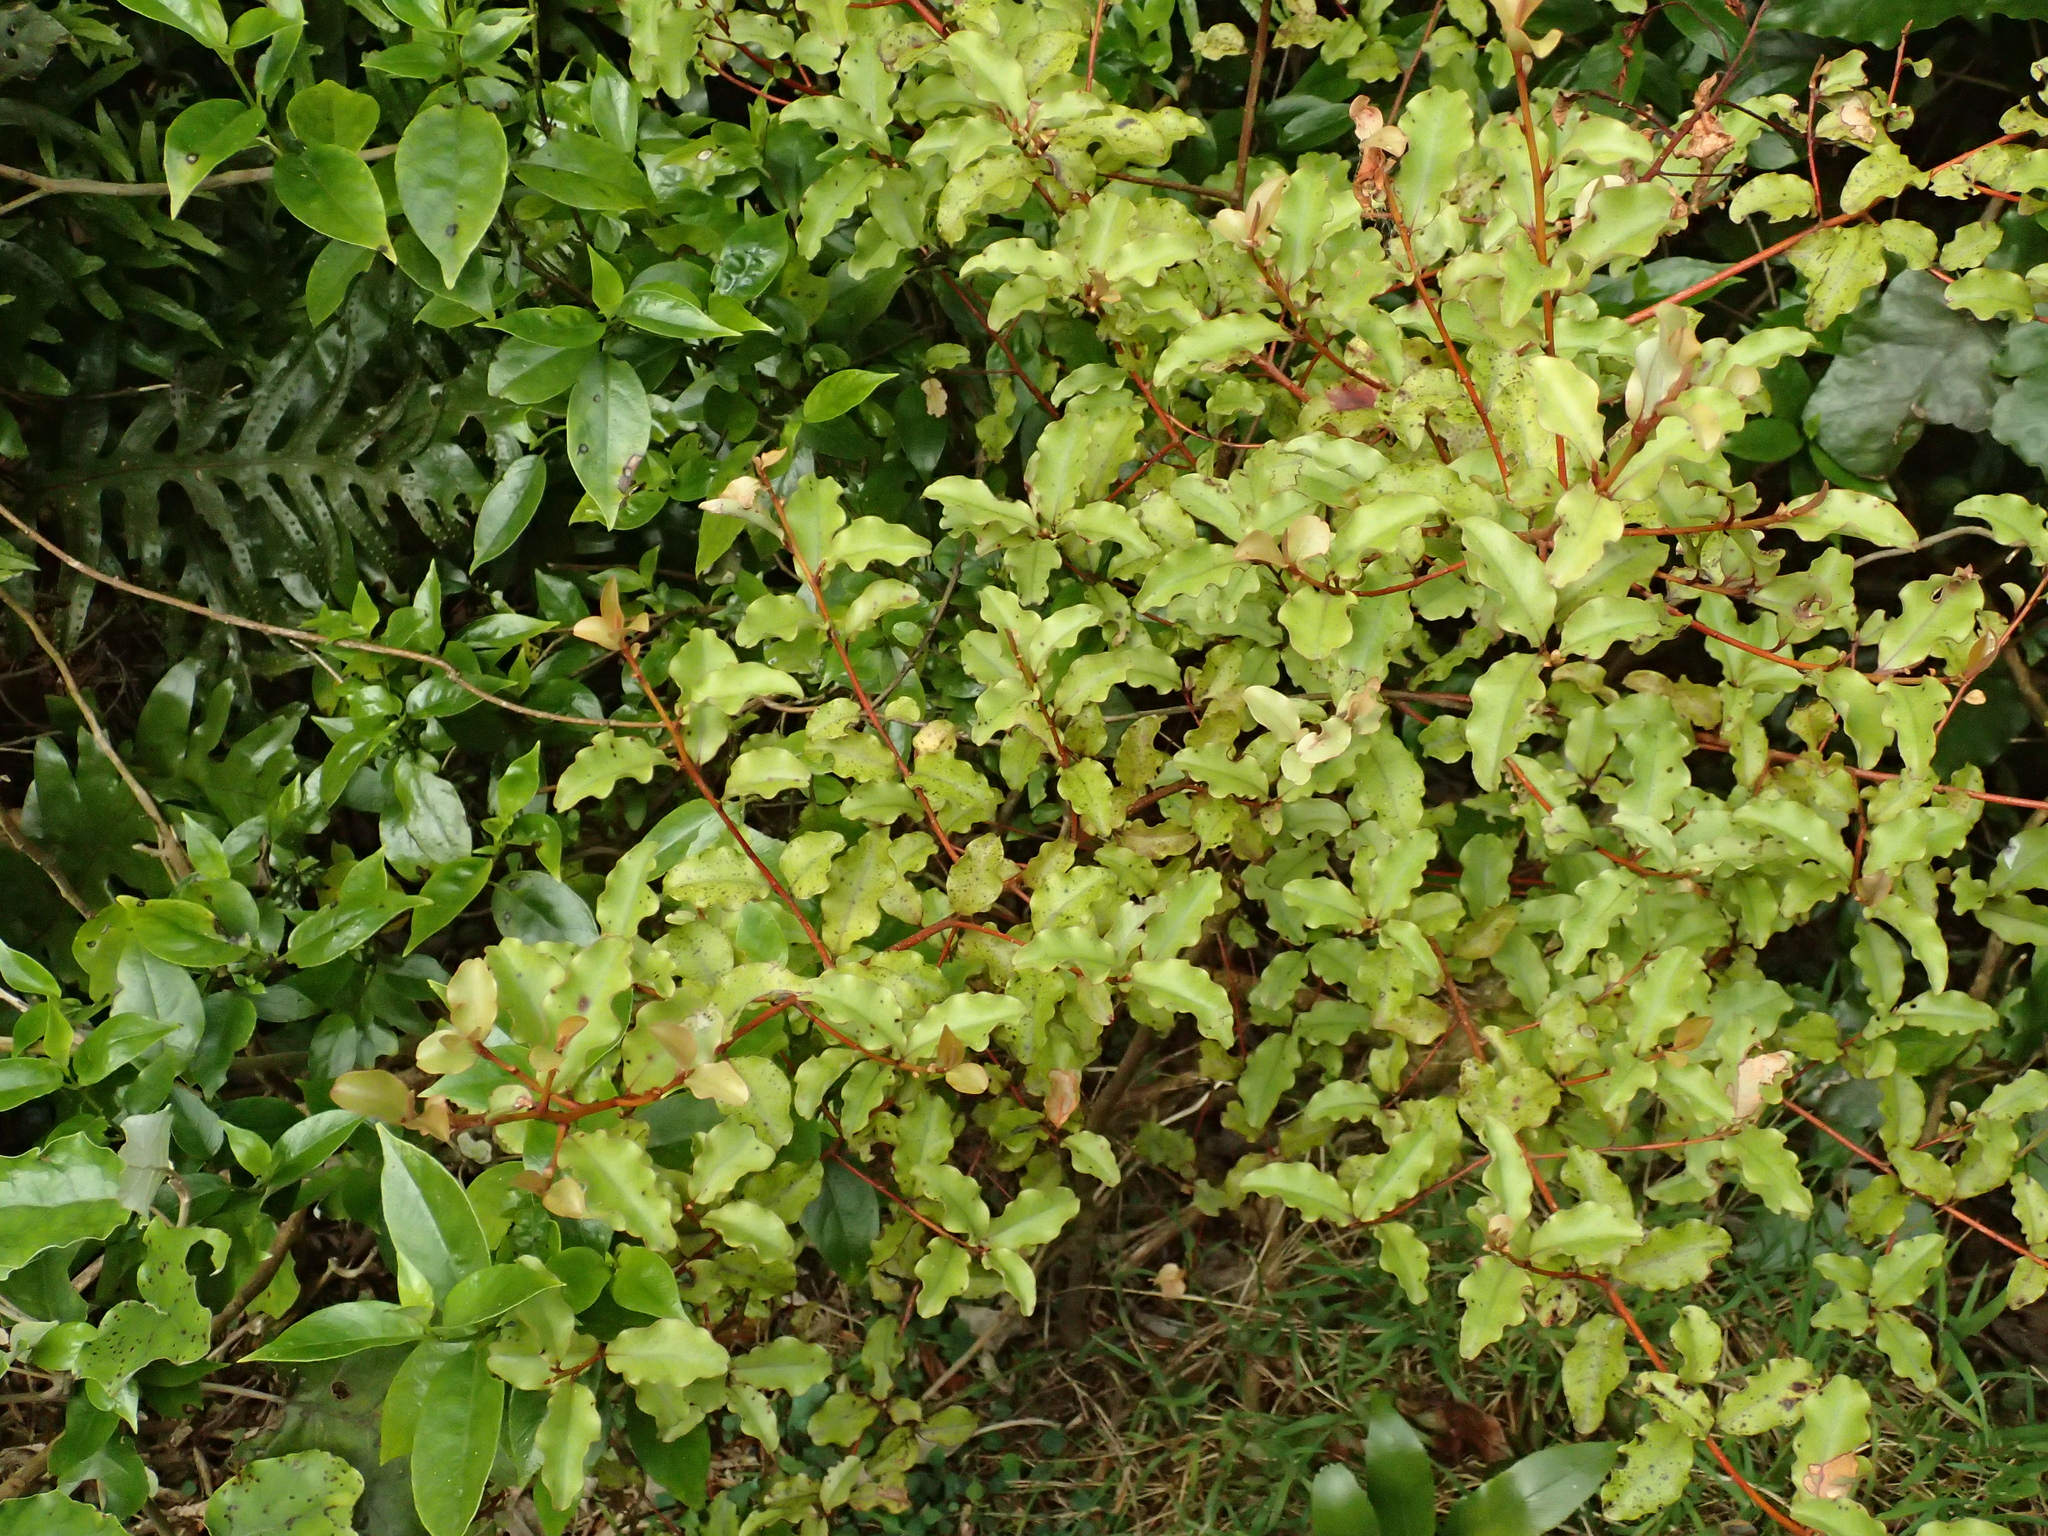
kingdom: Plantae
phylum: Tracheophyta
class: Magnoliopsida
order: Ericales
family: Primulaceae
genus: Myrsine
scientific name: Myrsine australis
